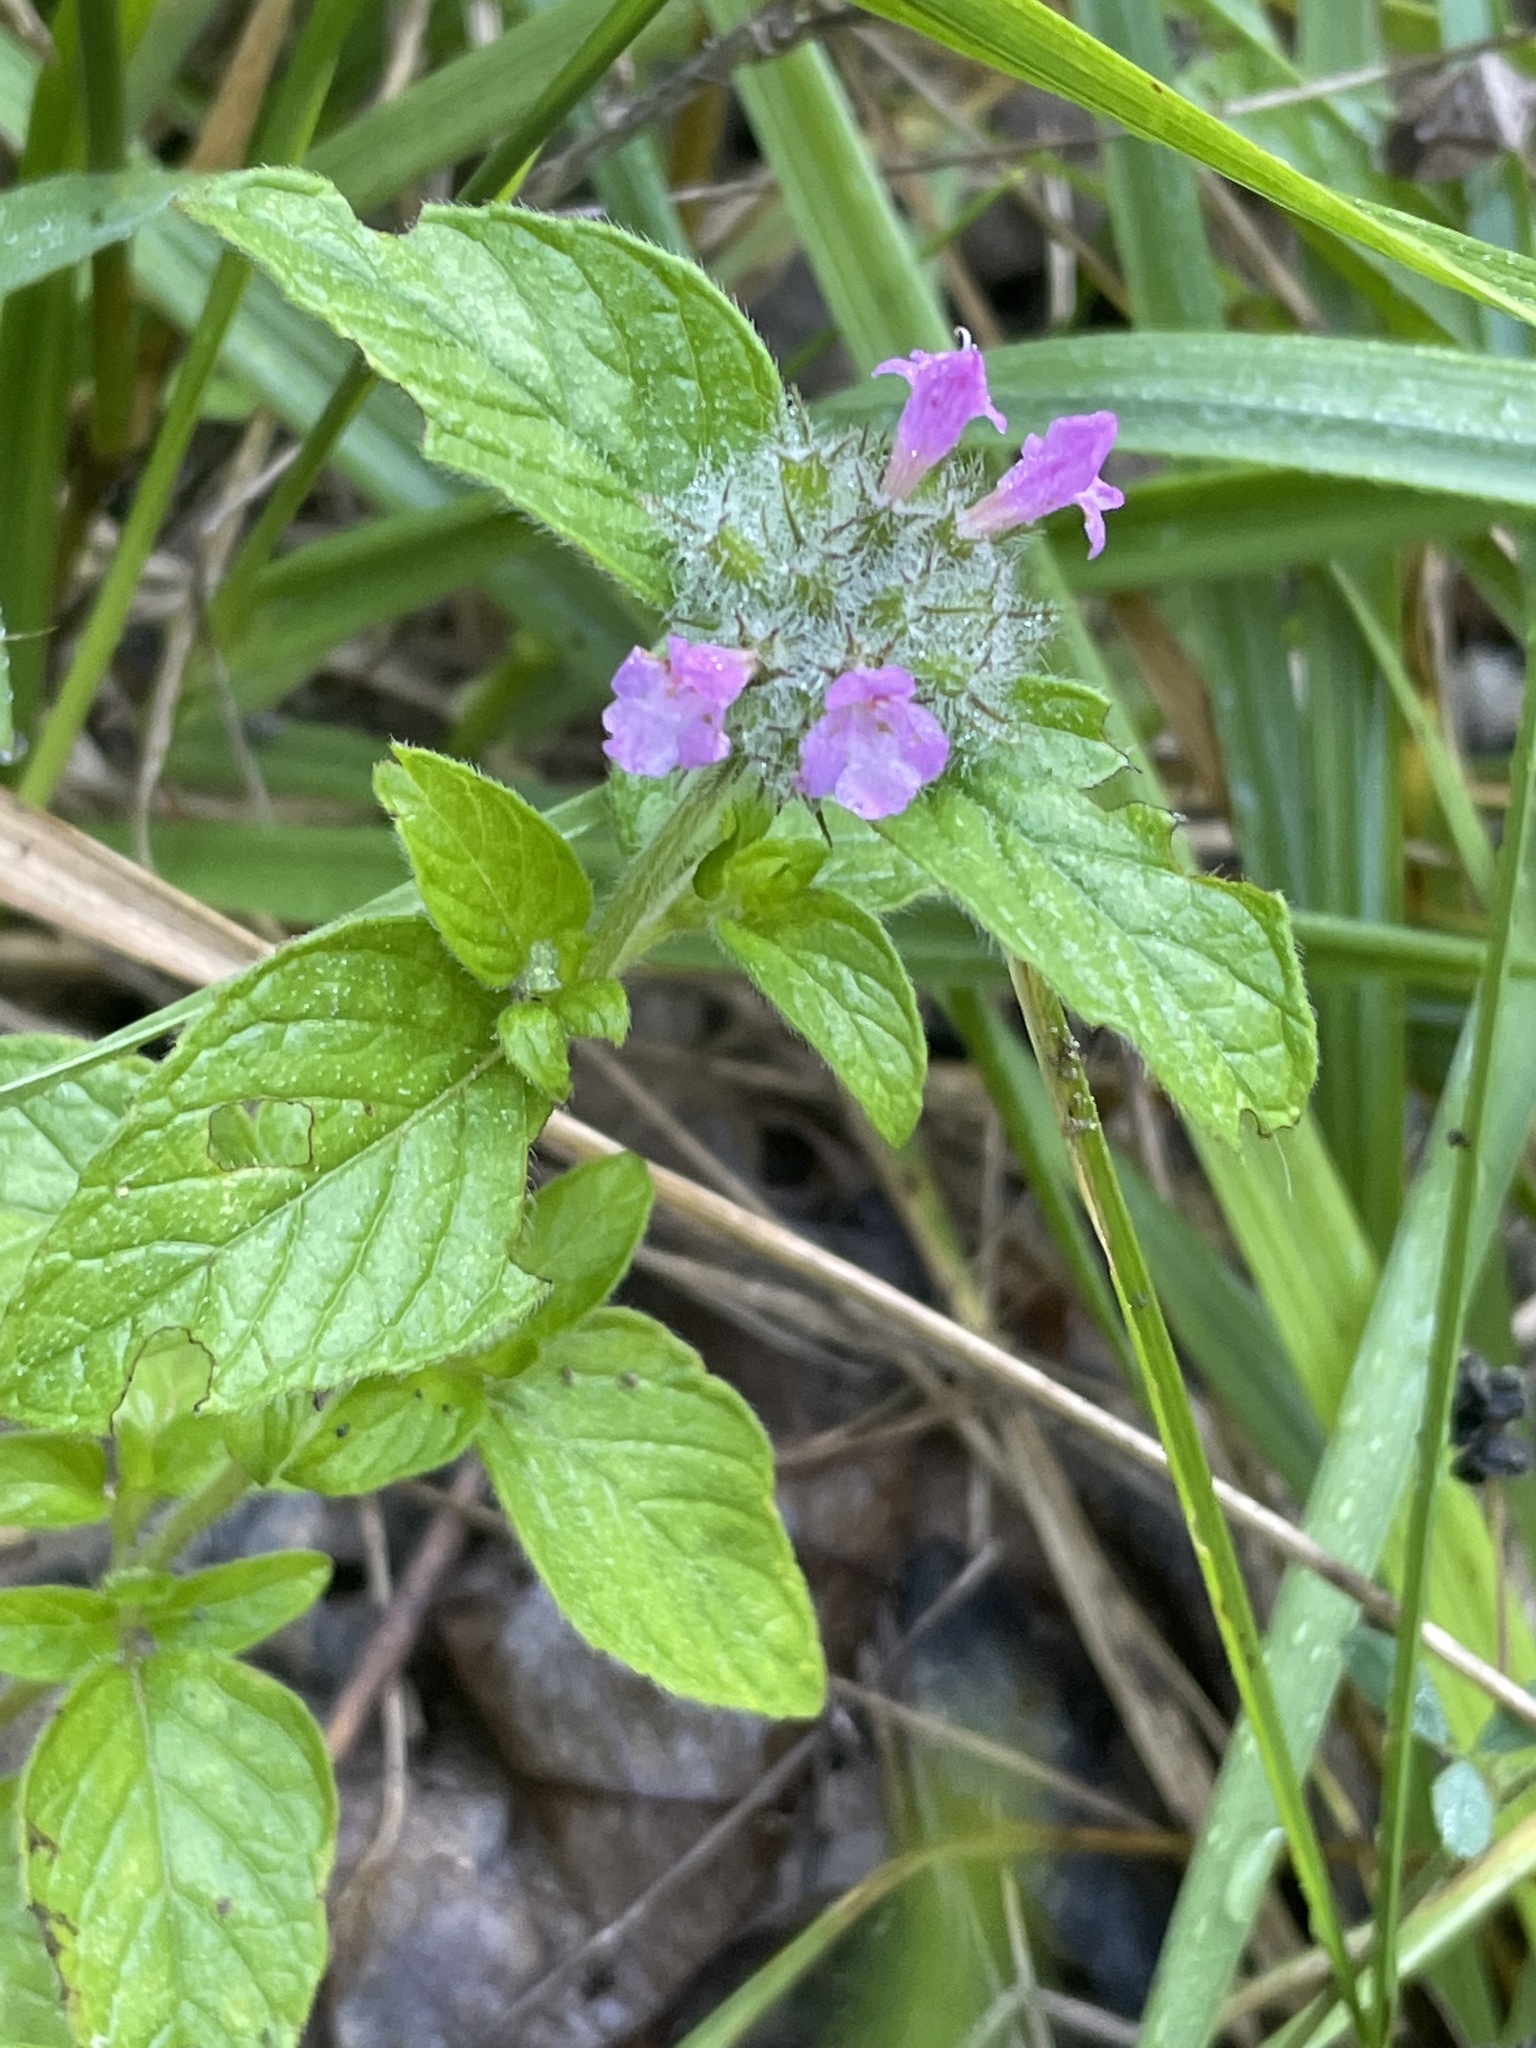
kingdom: Plantae
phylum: Tracheophyta
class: Magnoliopsida
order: Lamiales
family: Lamiaceae
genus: Clinopodium
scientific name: Clinopodium vulgare
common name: Wild basil
